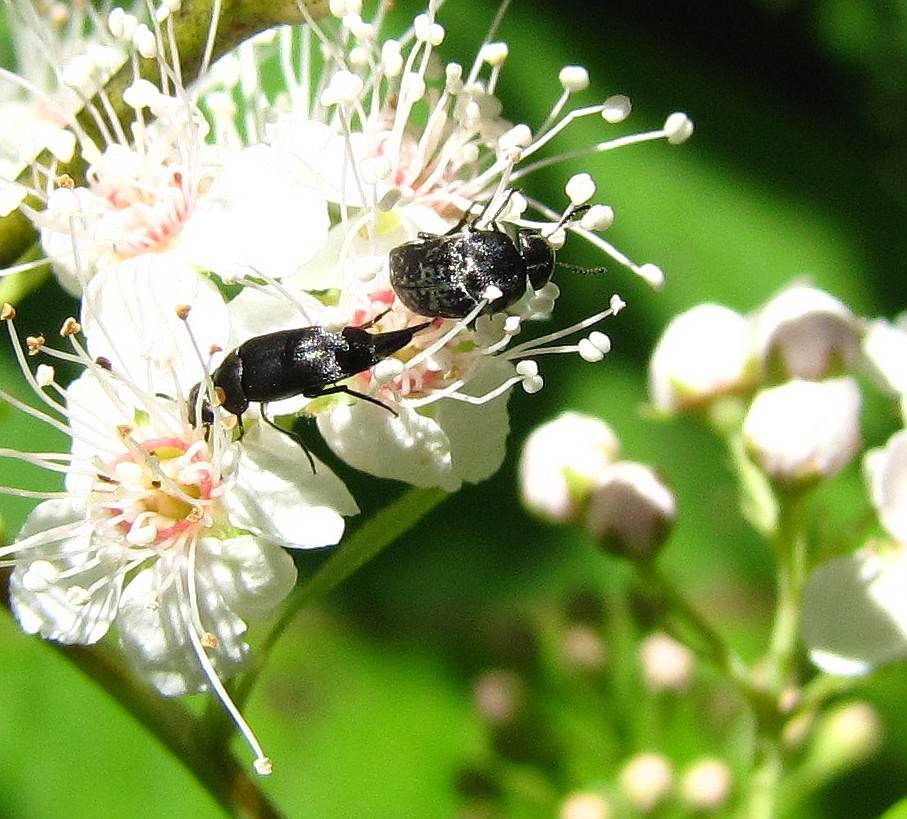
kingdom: Animalia
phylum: Arthropoda
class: Insecta
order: Coleoptera
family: Mordellidae
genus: Mordella
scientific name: Mordella marginata
